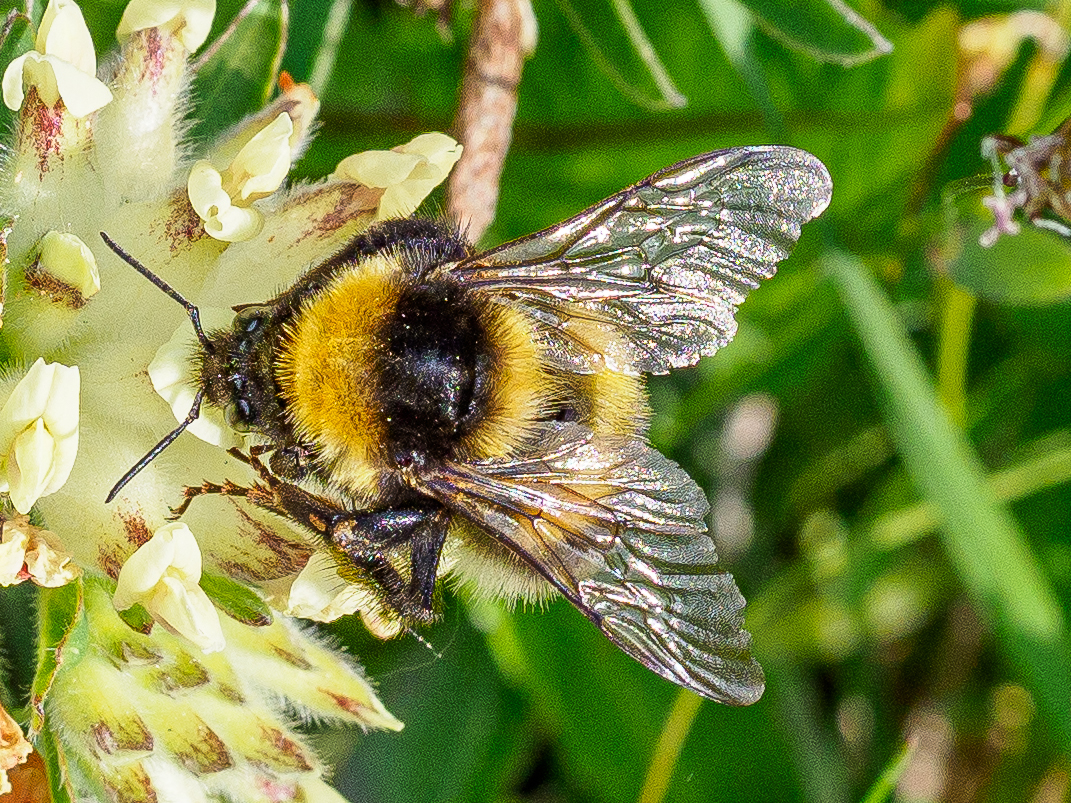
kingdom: Animalia
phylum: Arthropoda
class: Insecta
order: Hymenoptera
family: Apidae
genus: Bombus
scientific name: Bombus hortorum
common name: Garden bumblebee
